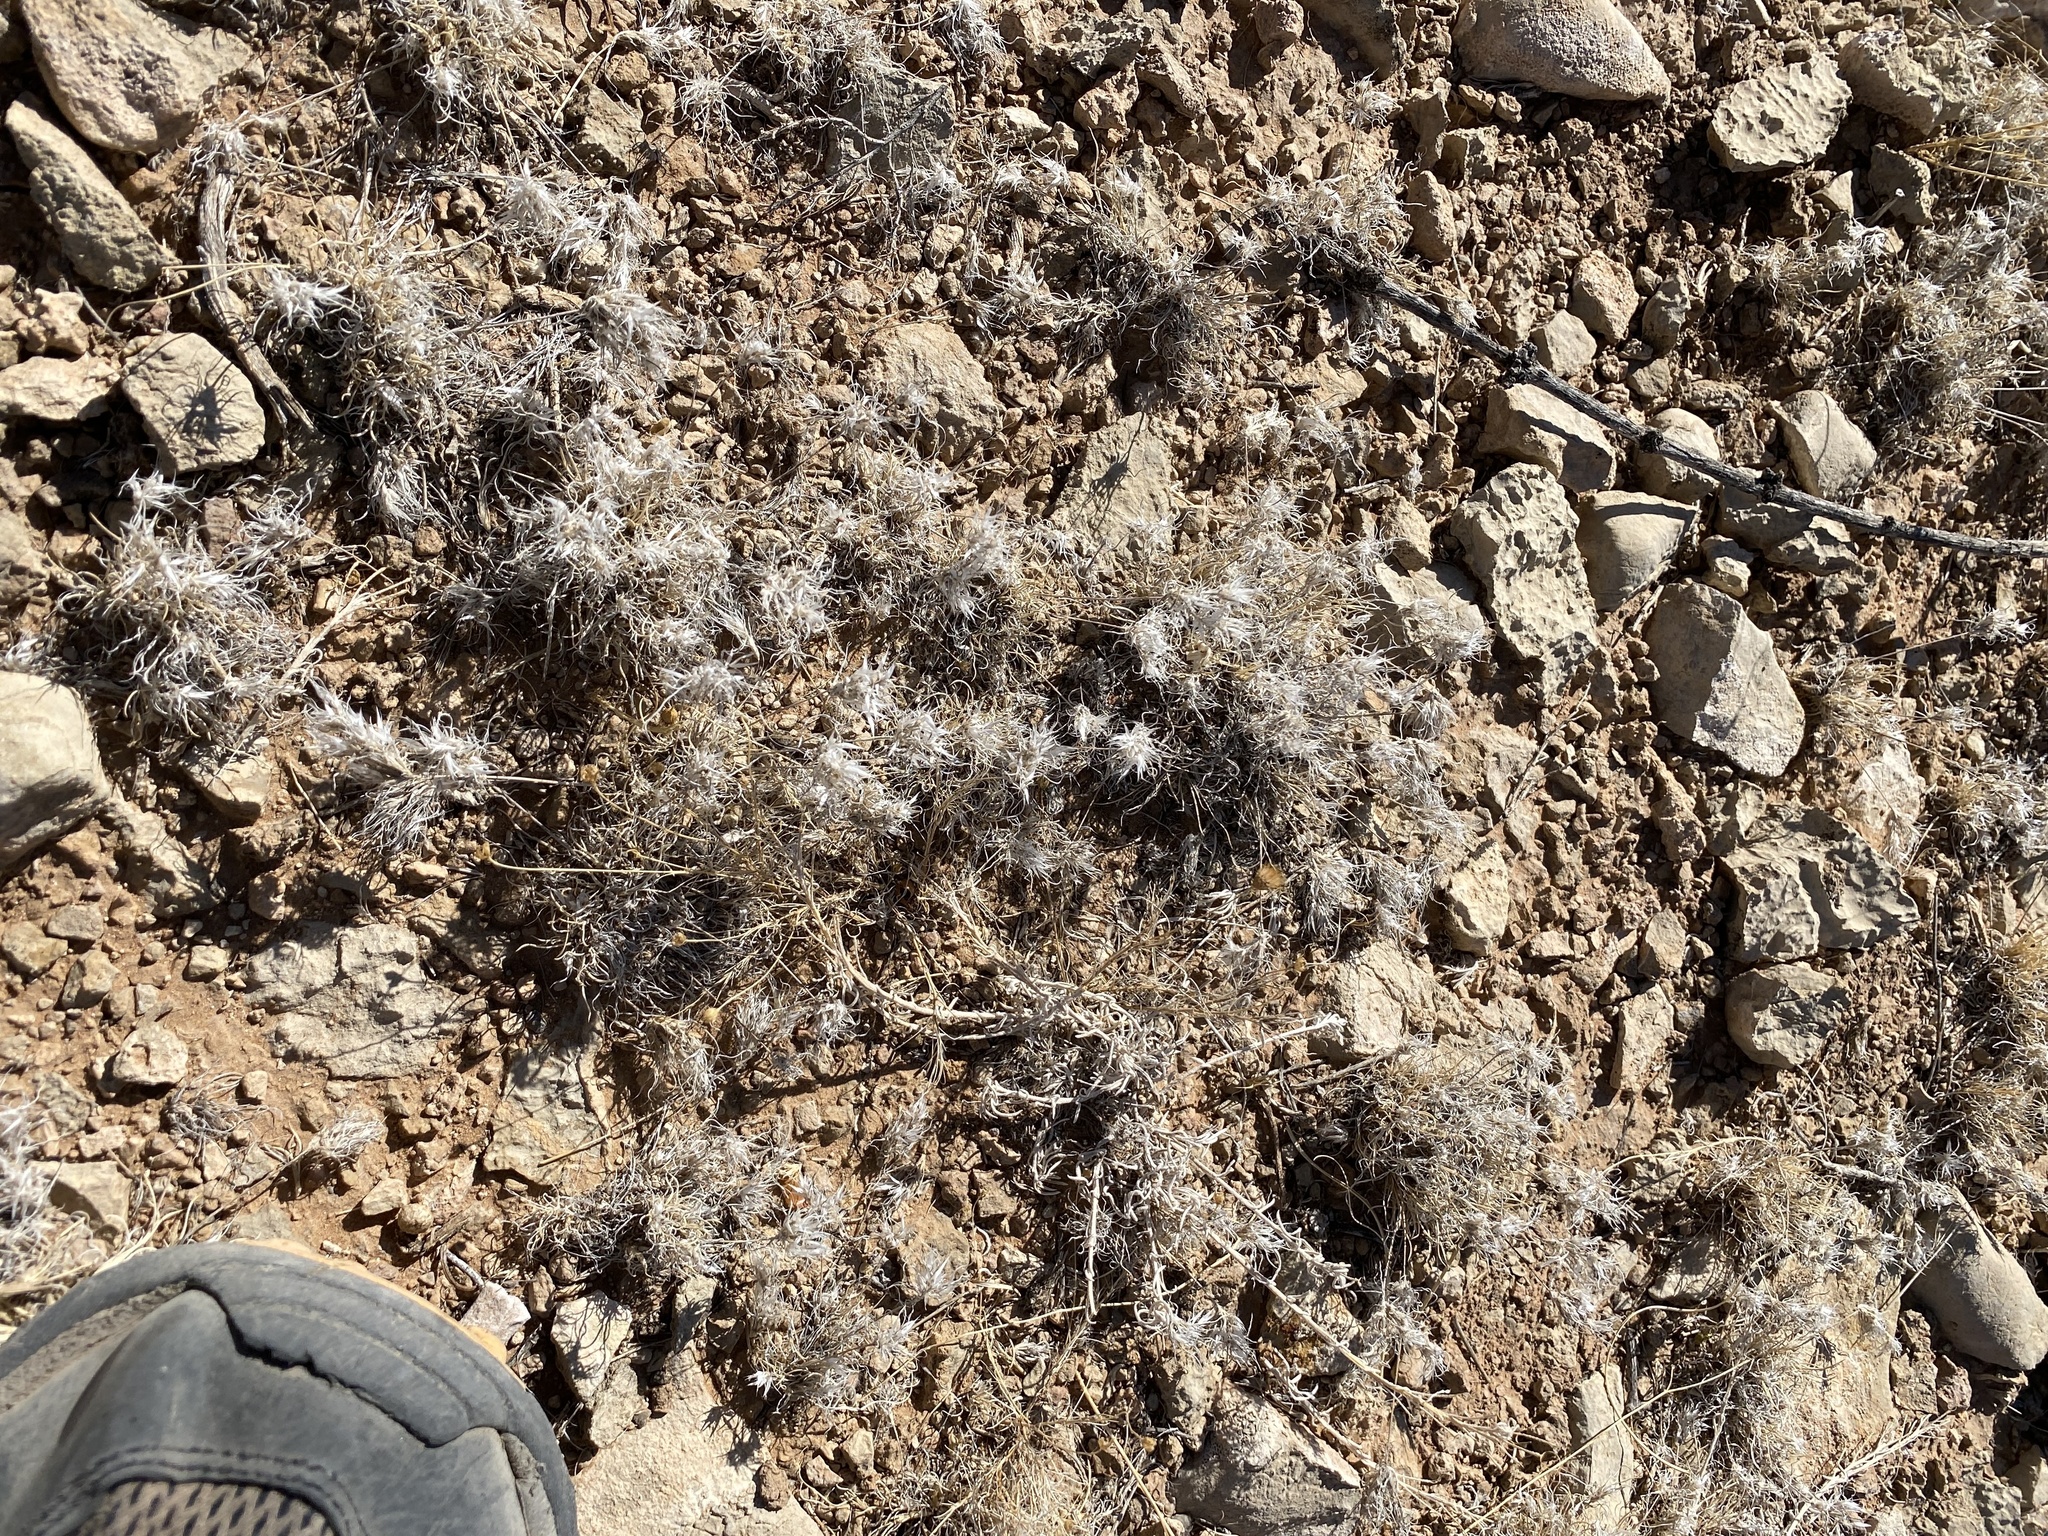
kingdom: Plantae
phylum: Tracheophyta
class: Liliopsida
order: Poales
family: Poaceae
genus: Dasyochloa
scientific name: Dasyochloa pulchella
